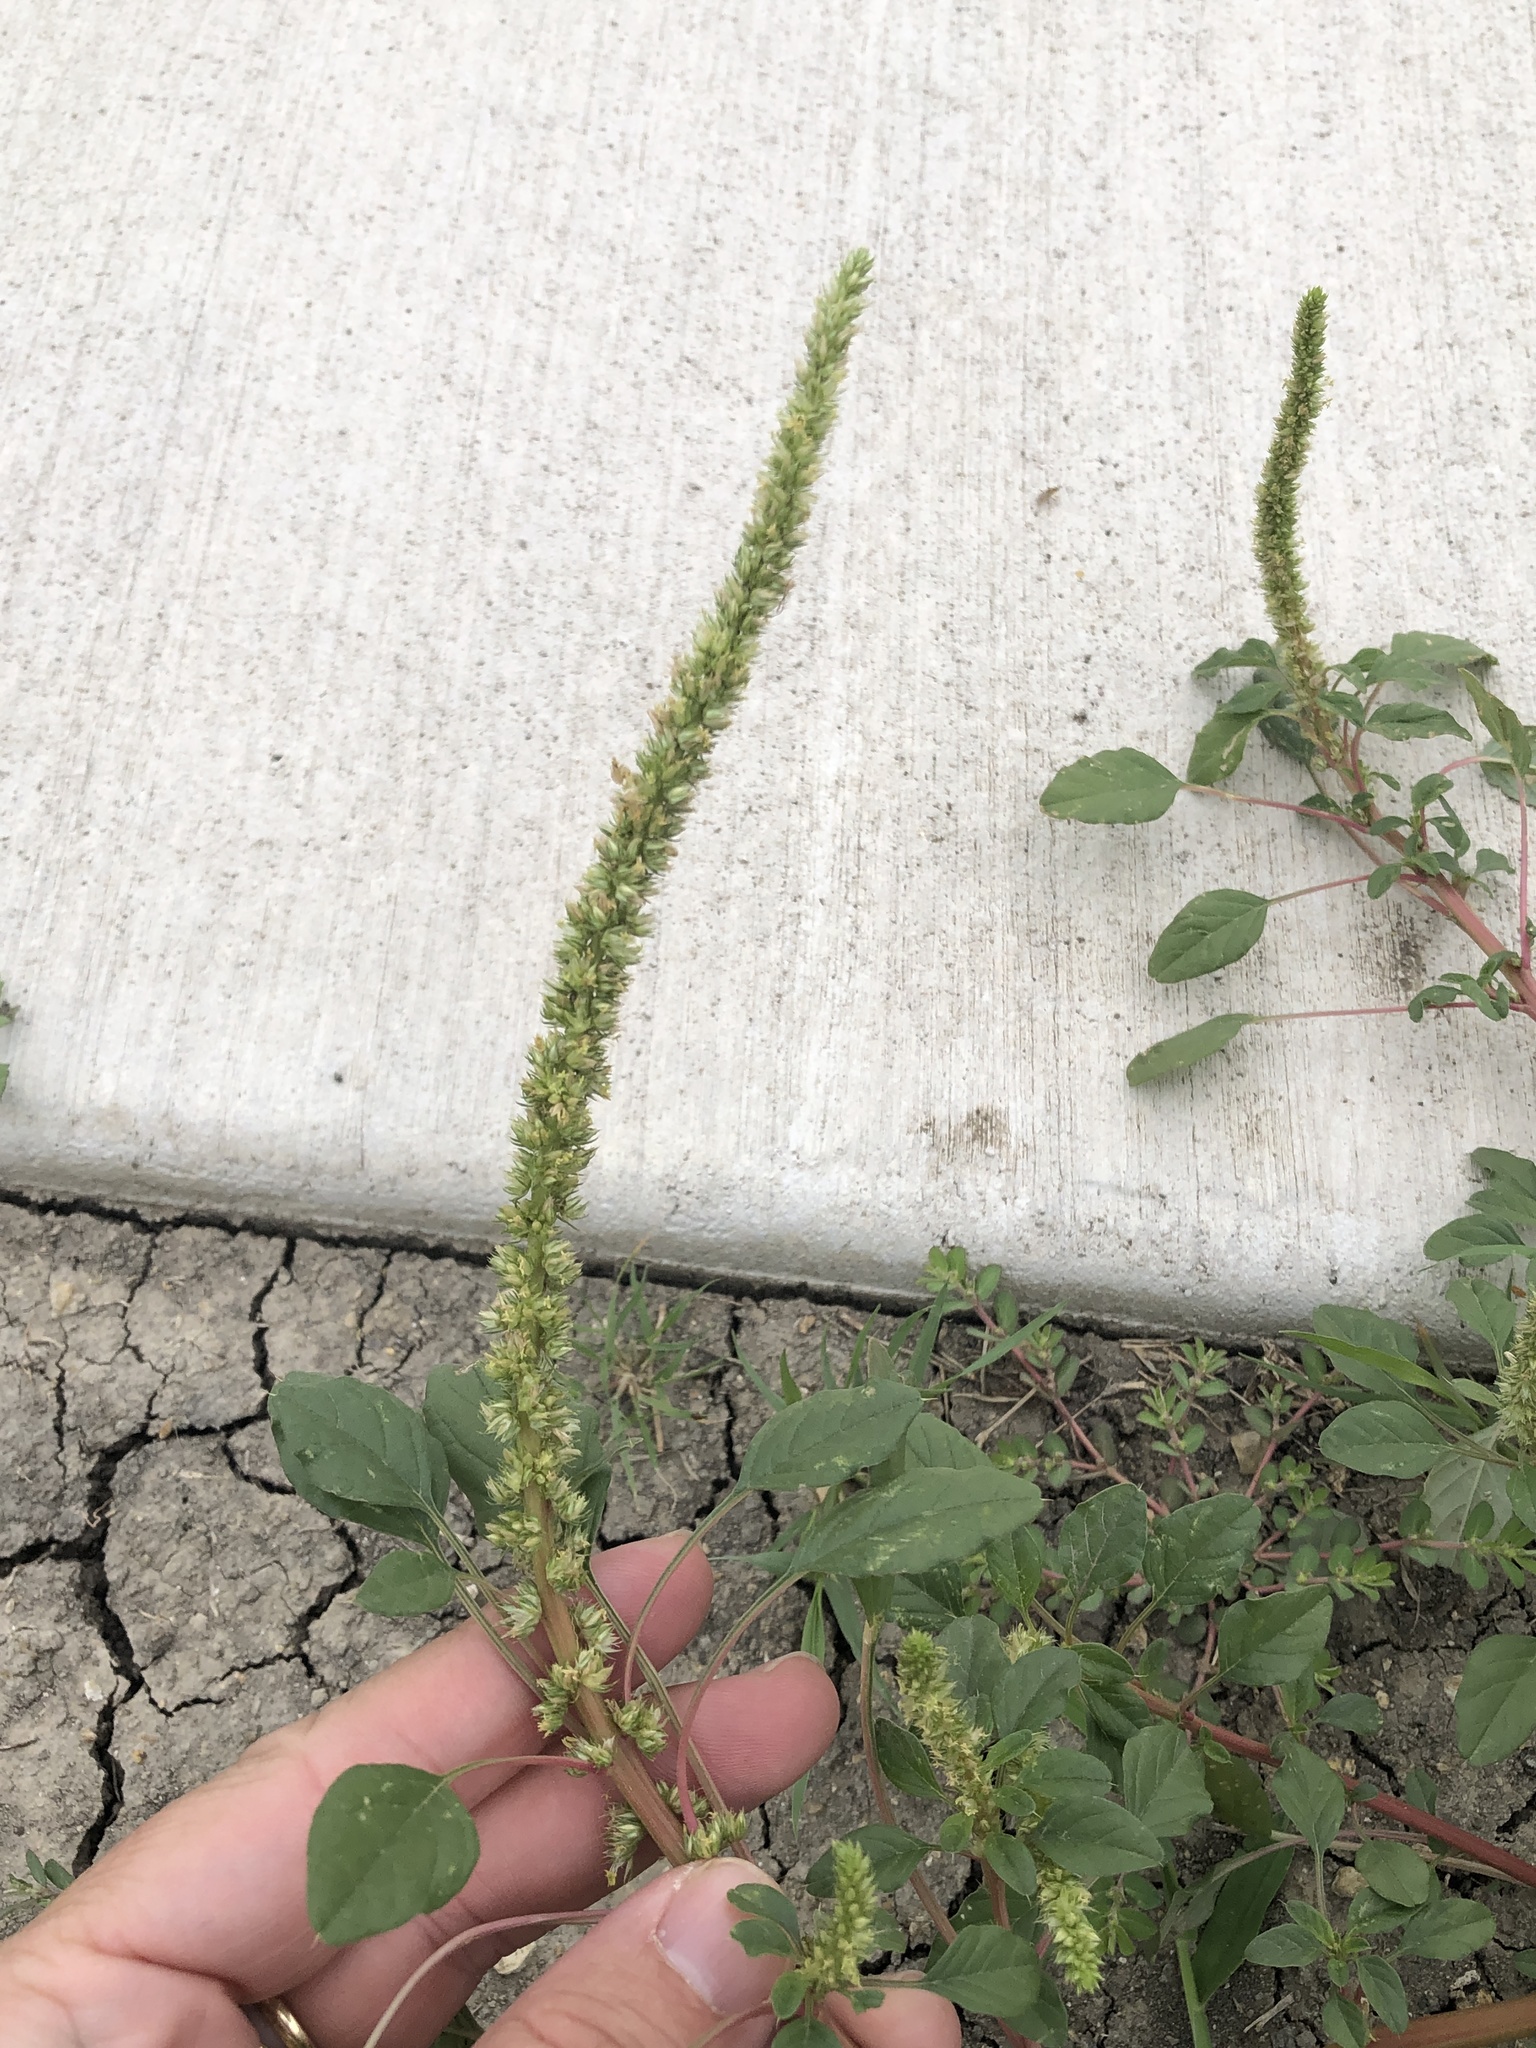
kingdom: Plantae
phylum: Tracheophyta
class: Magnoliopsida
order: Caryophyllales
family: Amaranthaceae
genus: Amaranthus
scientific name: Amaranthus palmeri
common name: Dioecious amaranth
